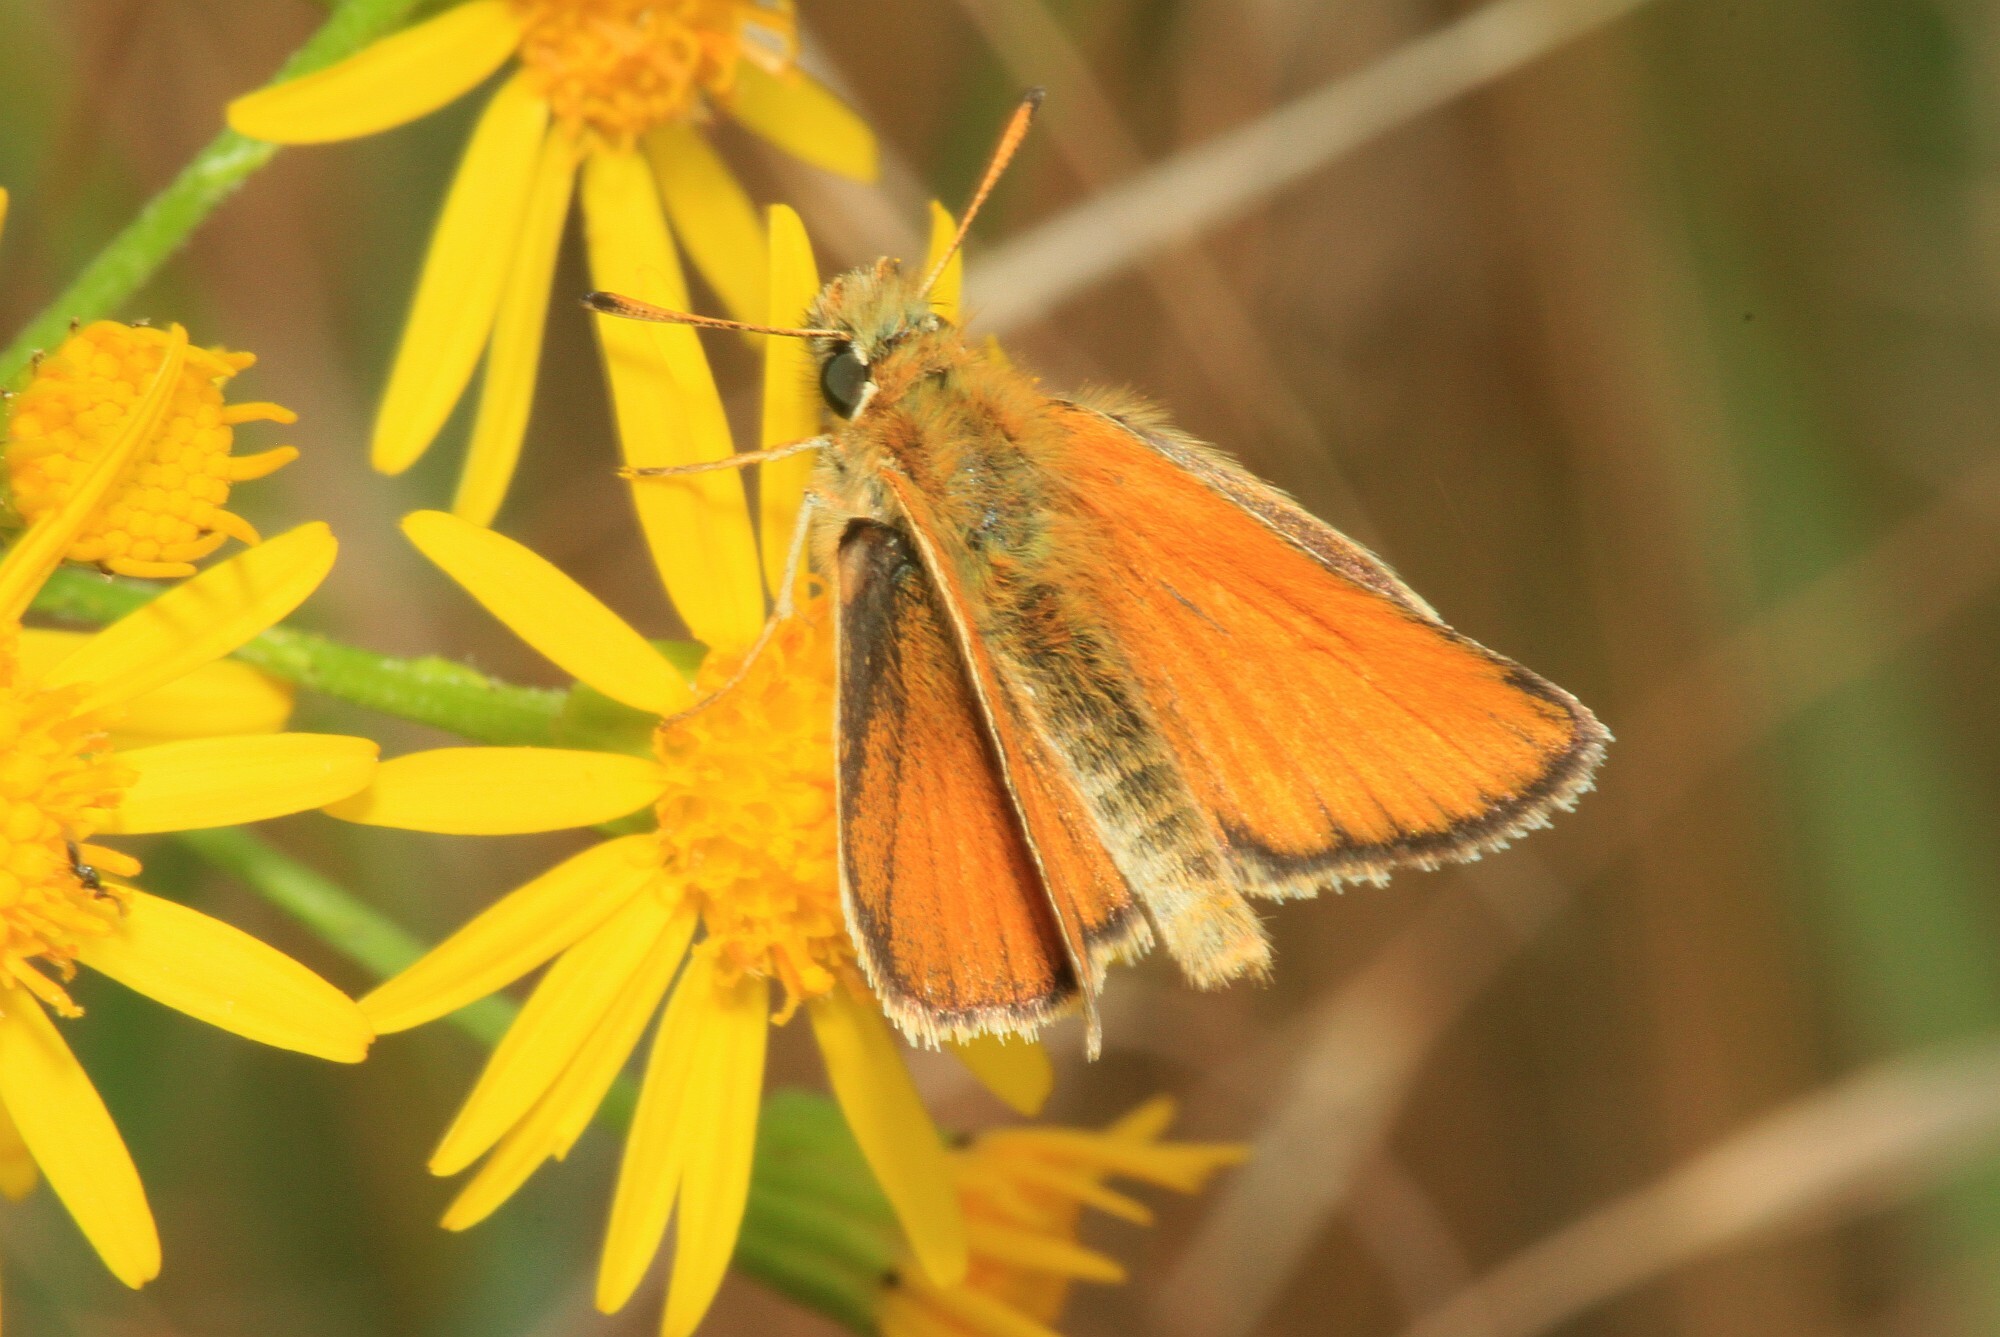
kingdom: Animalia
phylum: Arthropoda
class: Insecta
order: Lepidoptera
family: Hesperiidae
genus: Thymelicus
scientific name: Thymelicus lineola
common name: Essex skipper
